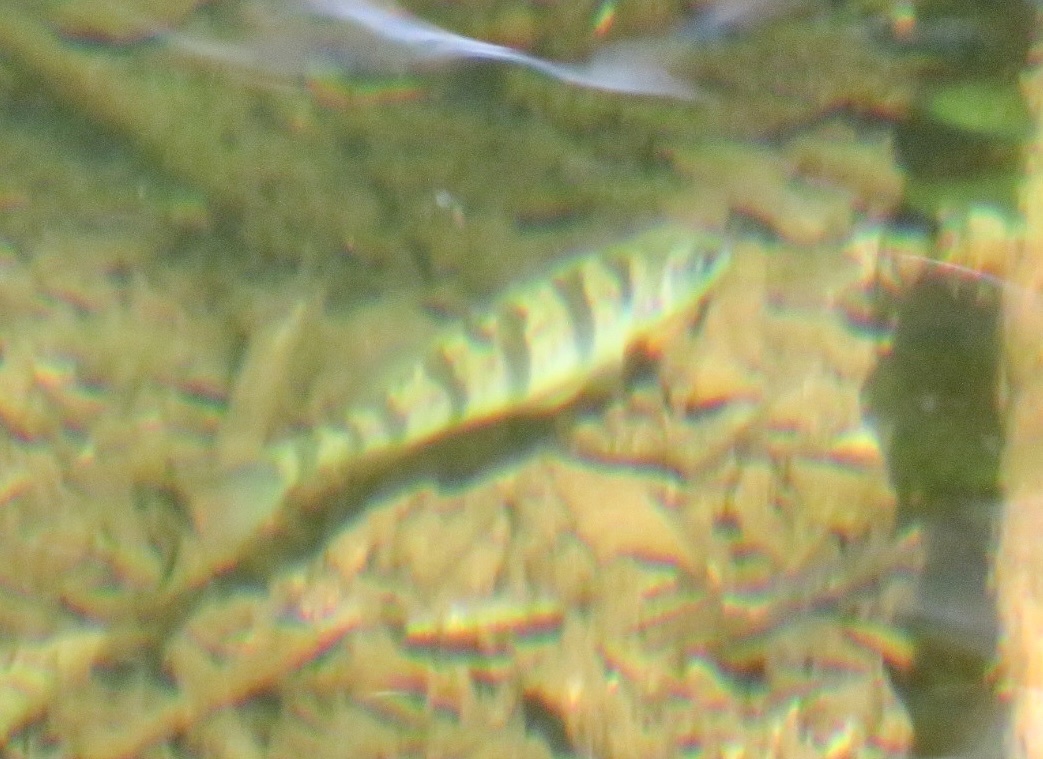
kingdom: Animalia
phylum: Chordata
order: Perciformes
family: Percidae
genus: Perca
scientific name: Perca flavescens
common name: Yellow perch
